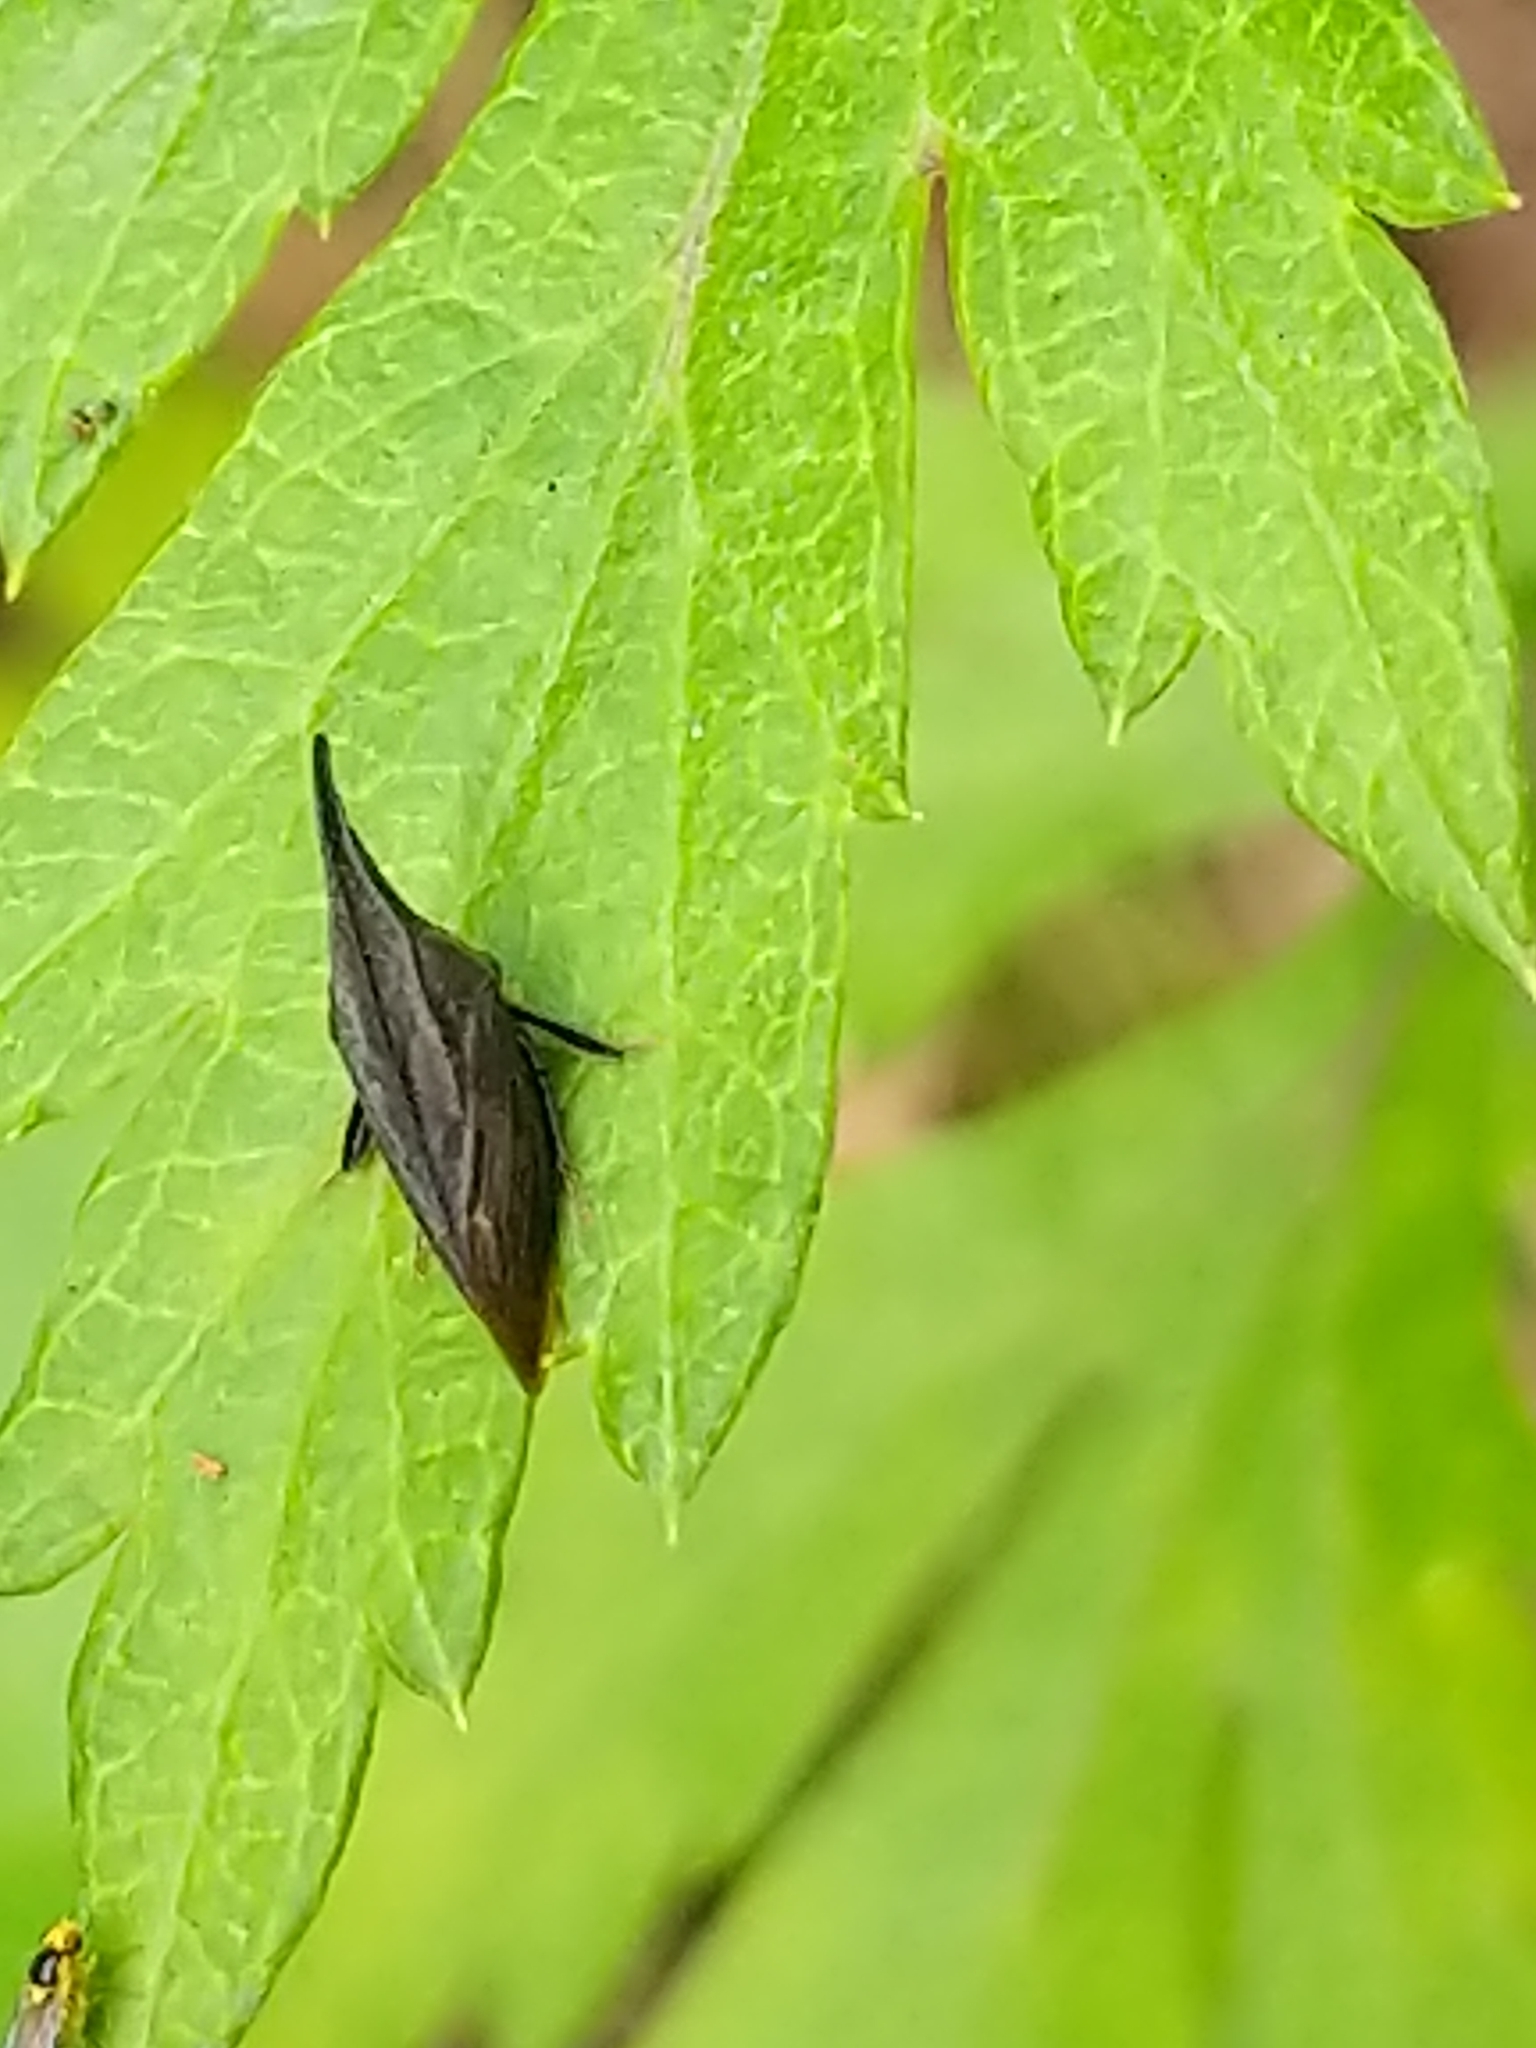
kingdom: Animalia
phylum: Arthropoda
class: Insecta
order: Hemiptera
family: Membracidae
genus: Enchenopa
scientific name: Enchenopa latipes
